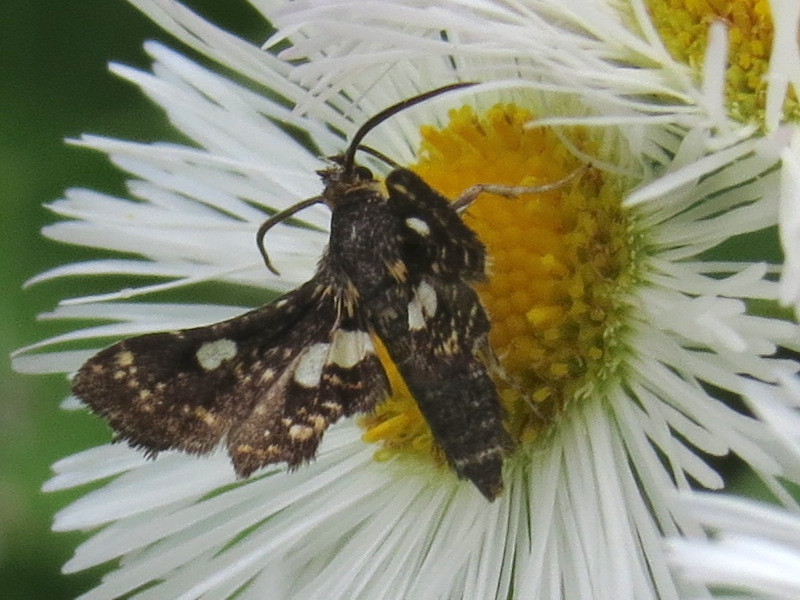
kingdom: Animalia
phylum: Arthropoda
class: Insecta
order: Lepidoptera
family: Thyrididae
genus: Thyris
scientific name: Thyris maculata
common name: Spotted thyris moth
